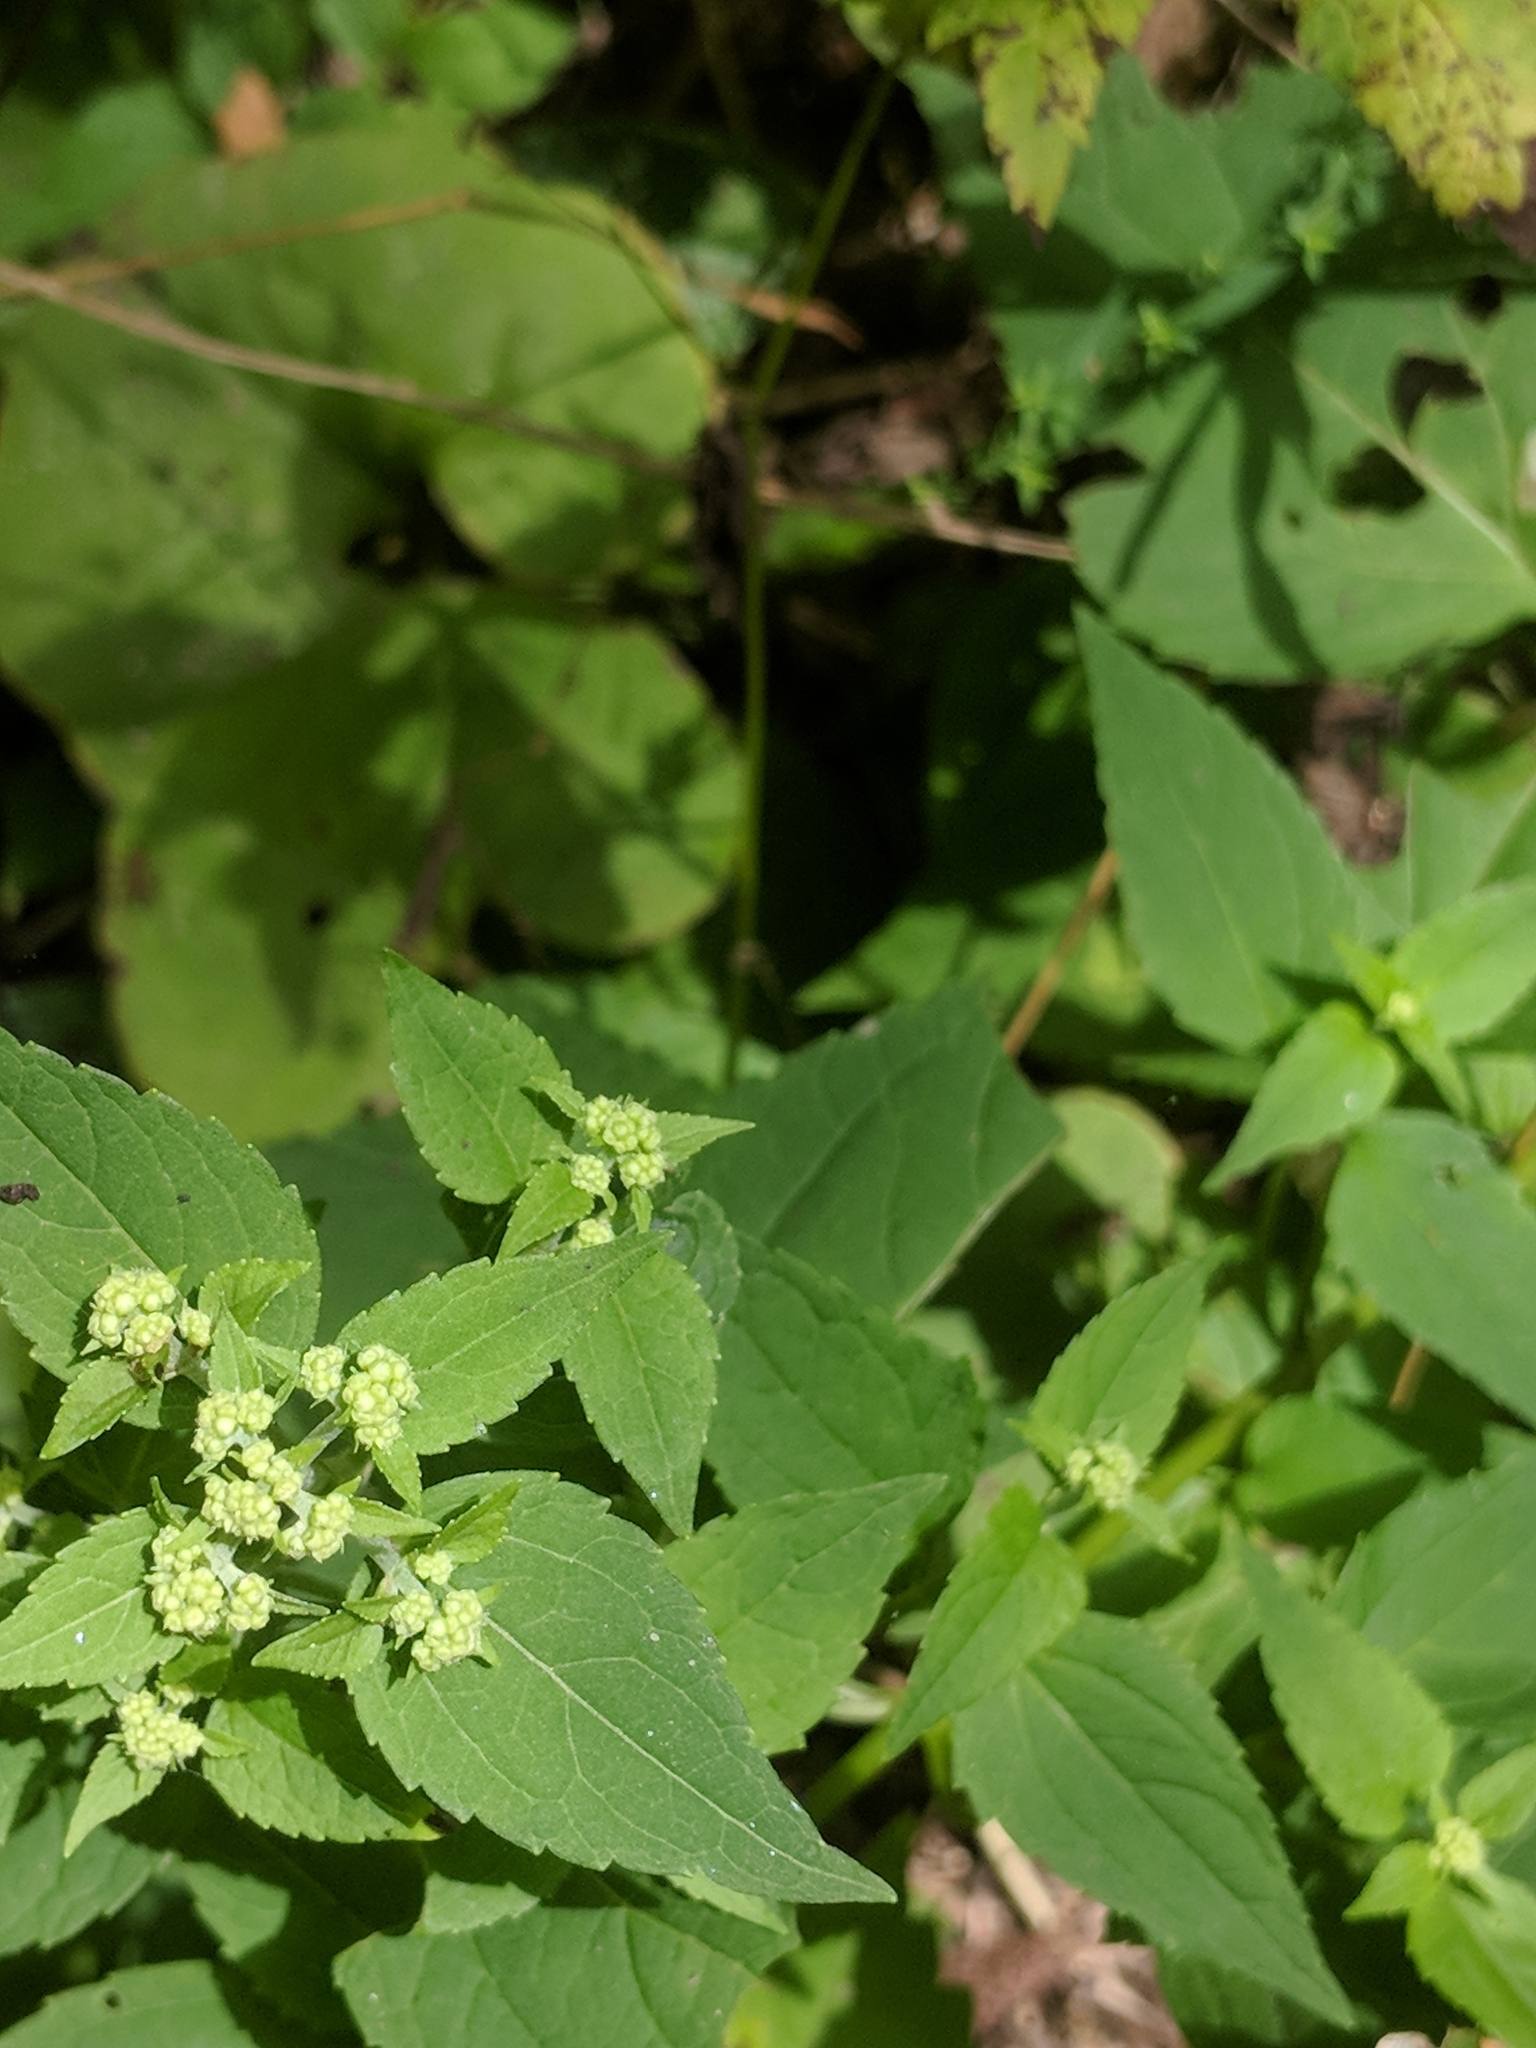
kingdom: Plantae
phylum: Tracheophyta
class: Magnoliopsida
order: Asterales
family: Asteraceae
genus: Ageratina
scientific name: Ageratina altissima
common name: White snakeroot
